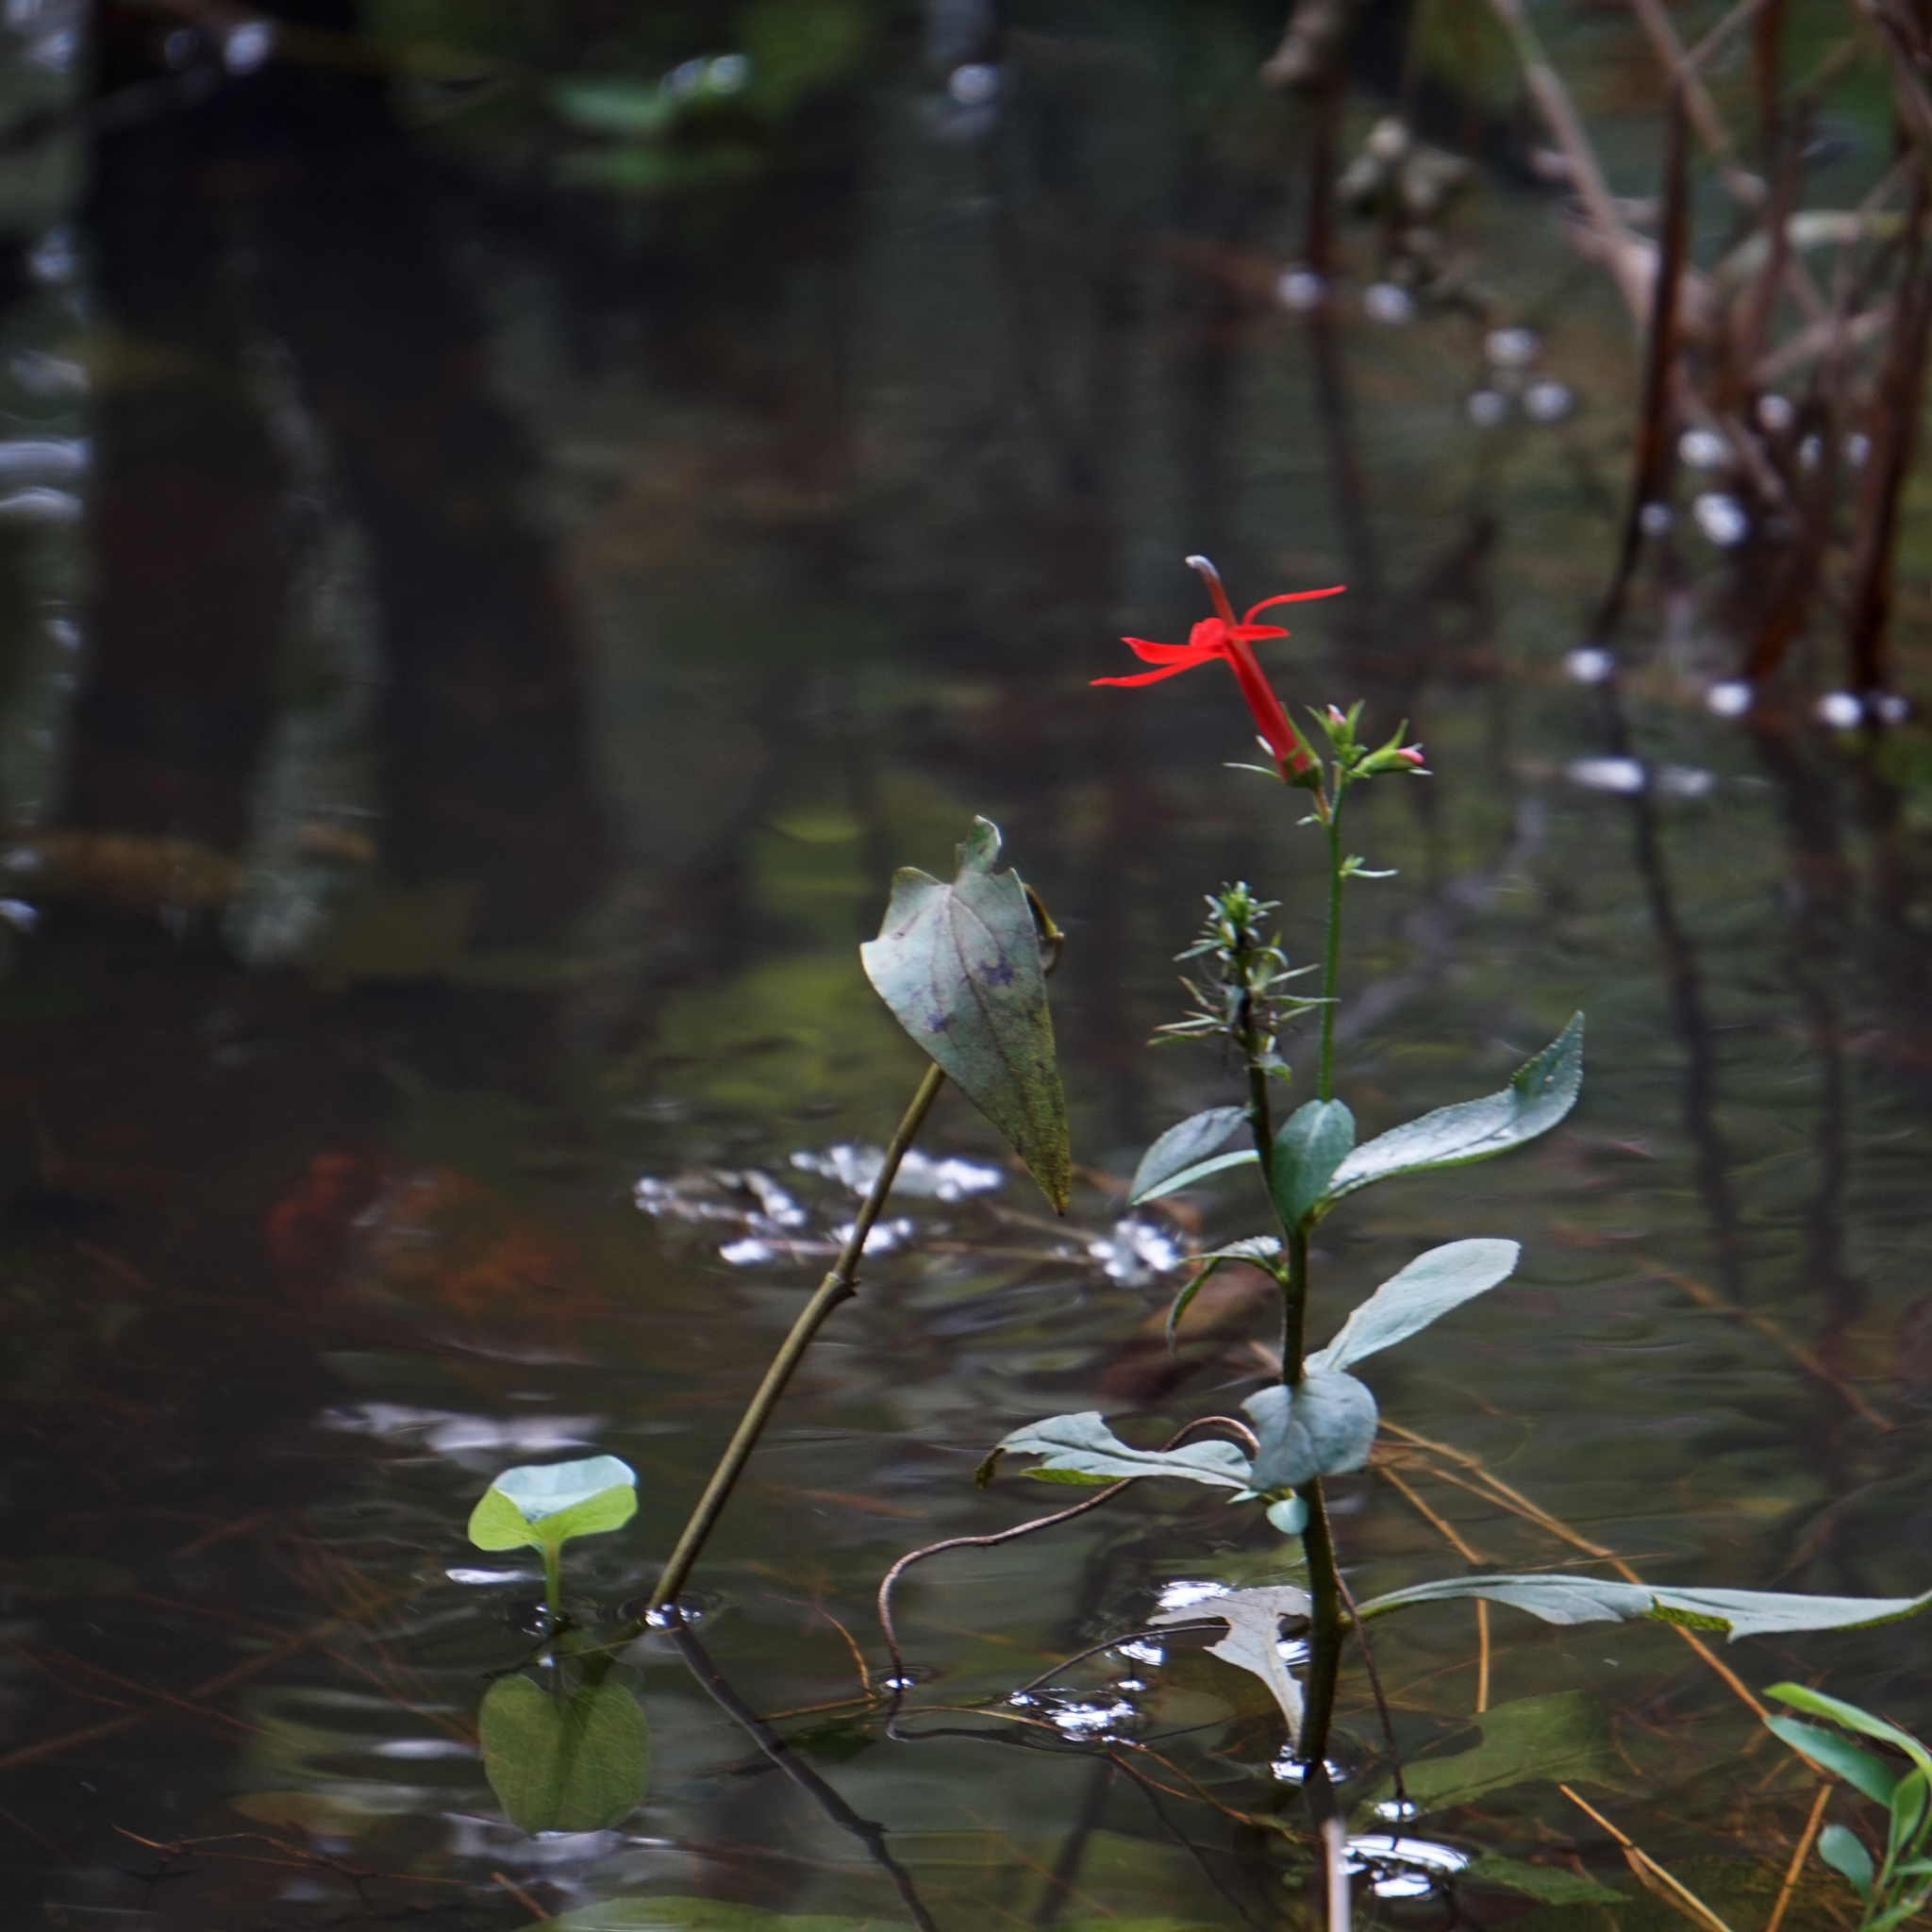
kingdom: Plantae
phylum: Tracheophyta
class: Magnoliopsida
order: Asterales
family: Campanulaceae
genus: Lobelia
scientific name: Lobelia cardinalis
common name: Cardinal flower
